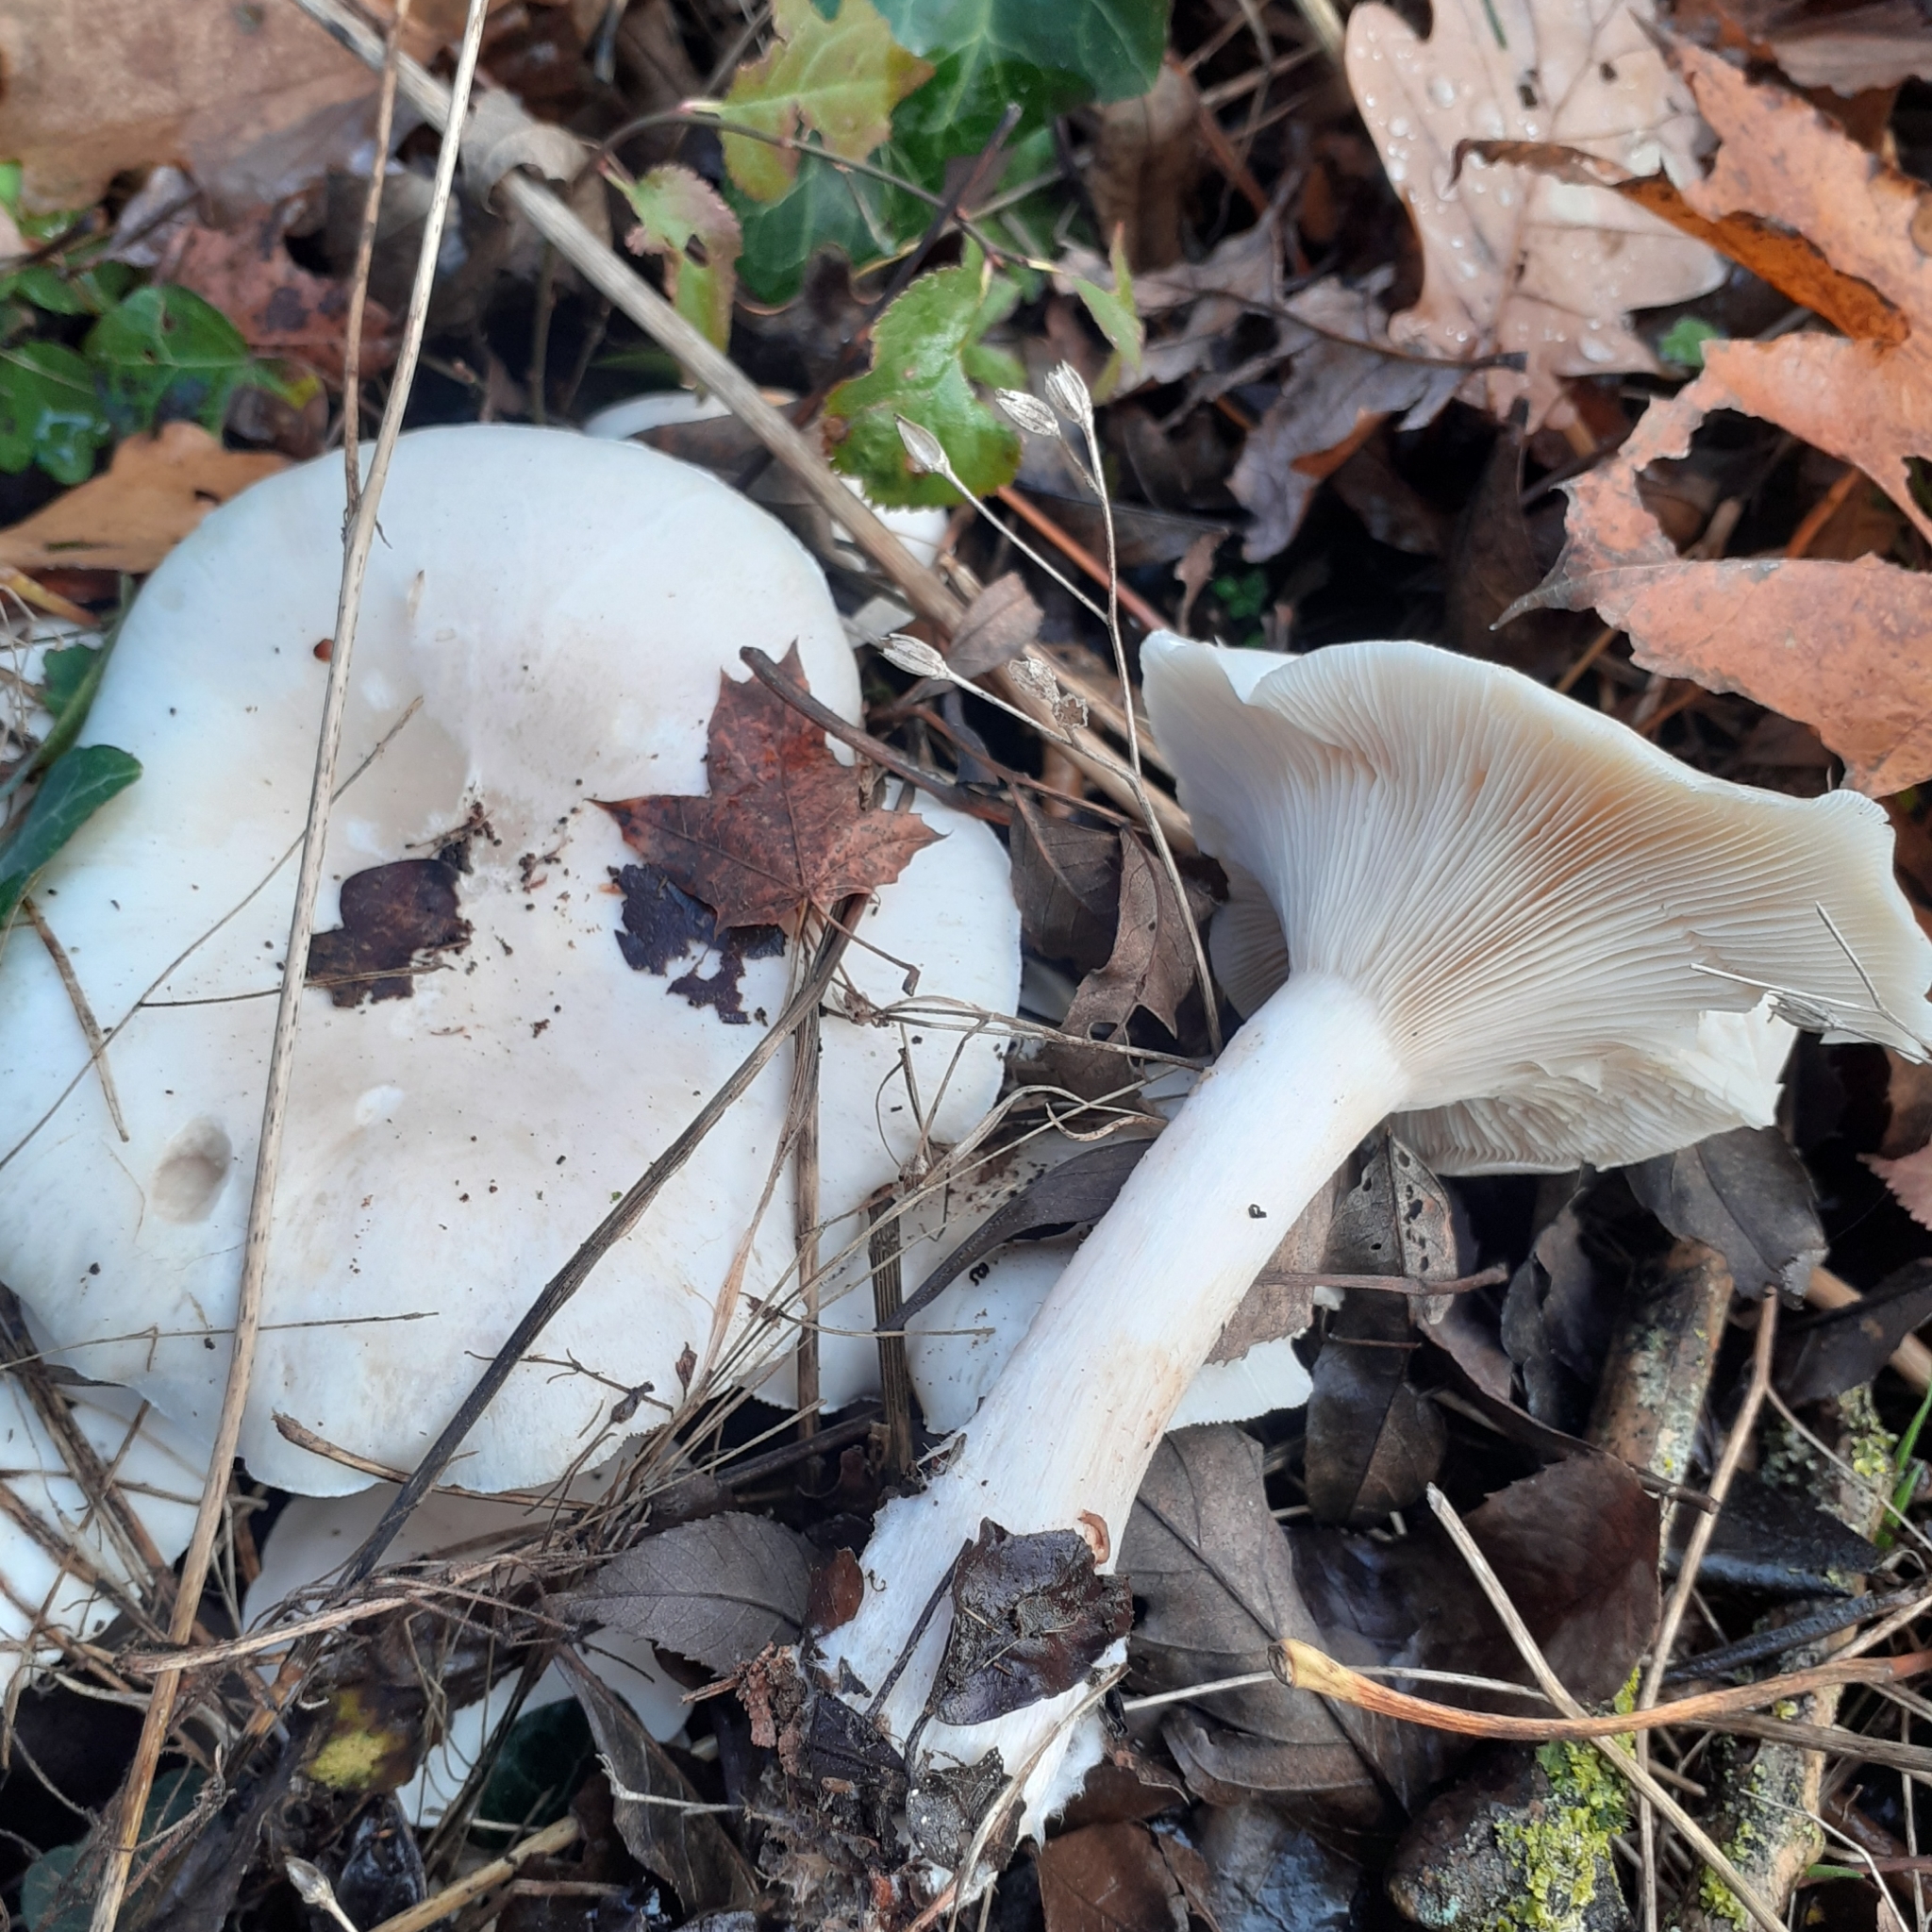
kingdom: Fungi
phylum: Basidiomycota
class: Agaricomycetes
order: Agaricales
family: Tricholomataceae
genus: Clitocybe
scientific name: Clitocybe nebularis
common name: Clouded agaric
